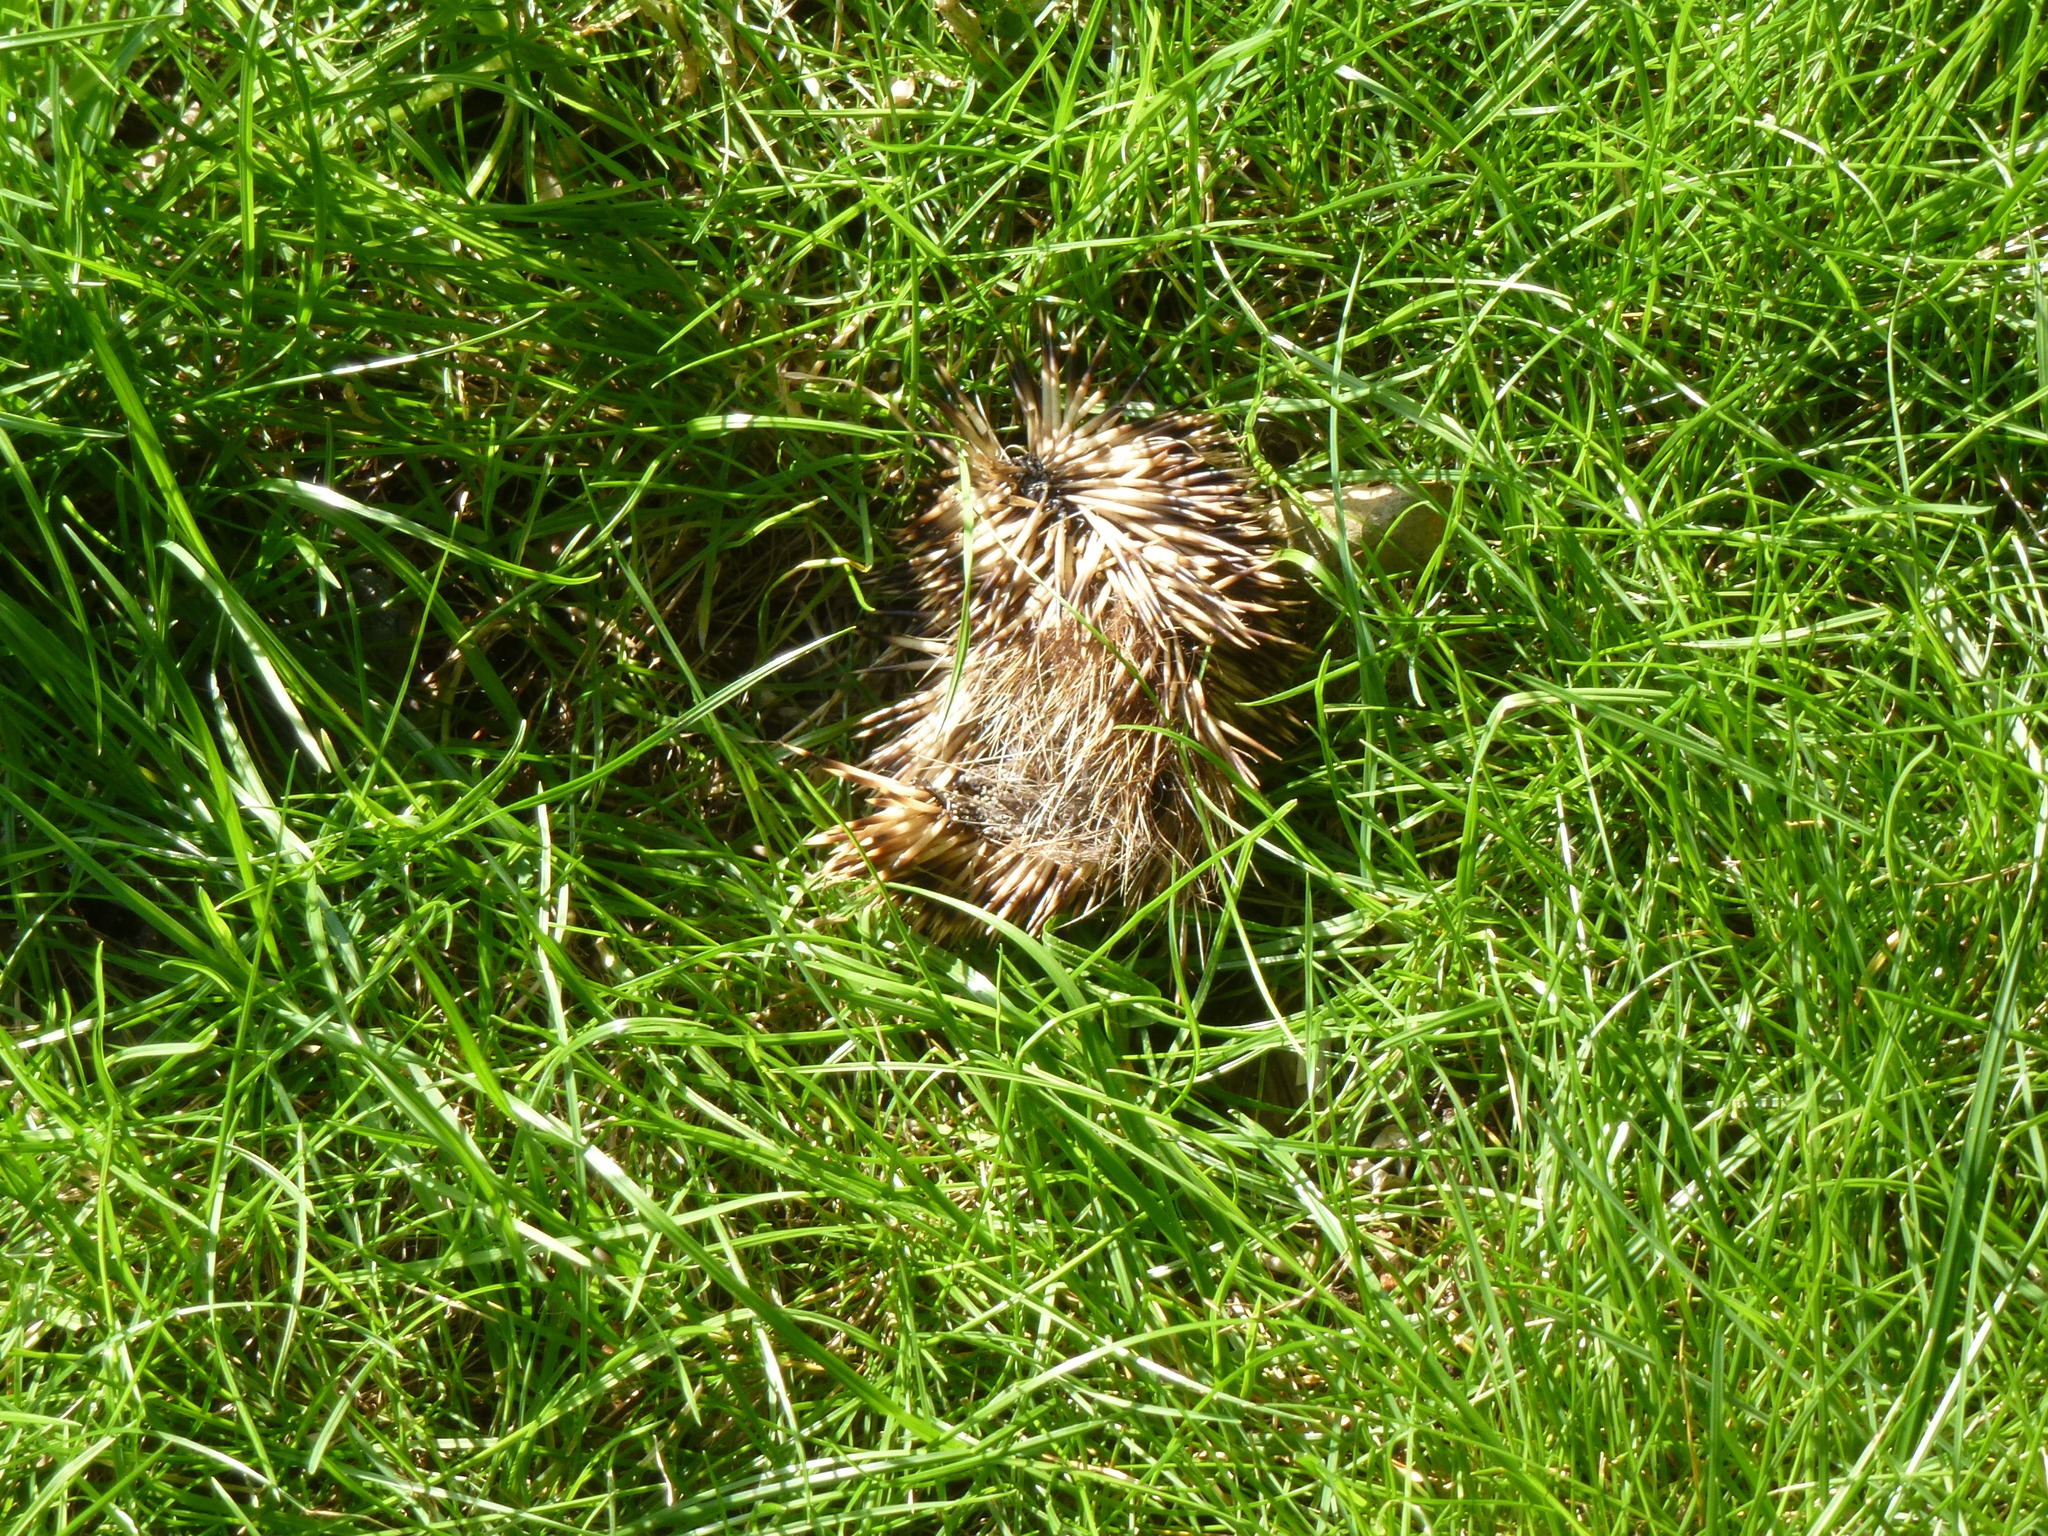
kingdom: Animalia
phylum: Chordata
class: Mammalia
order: Erinaceomorpha
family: Erinaceidae
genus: Erinaceus
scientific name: Erinaceus europaeus
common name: West european hedgehog
